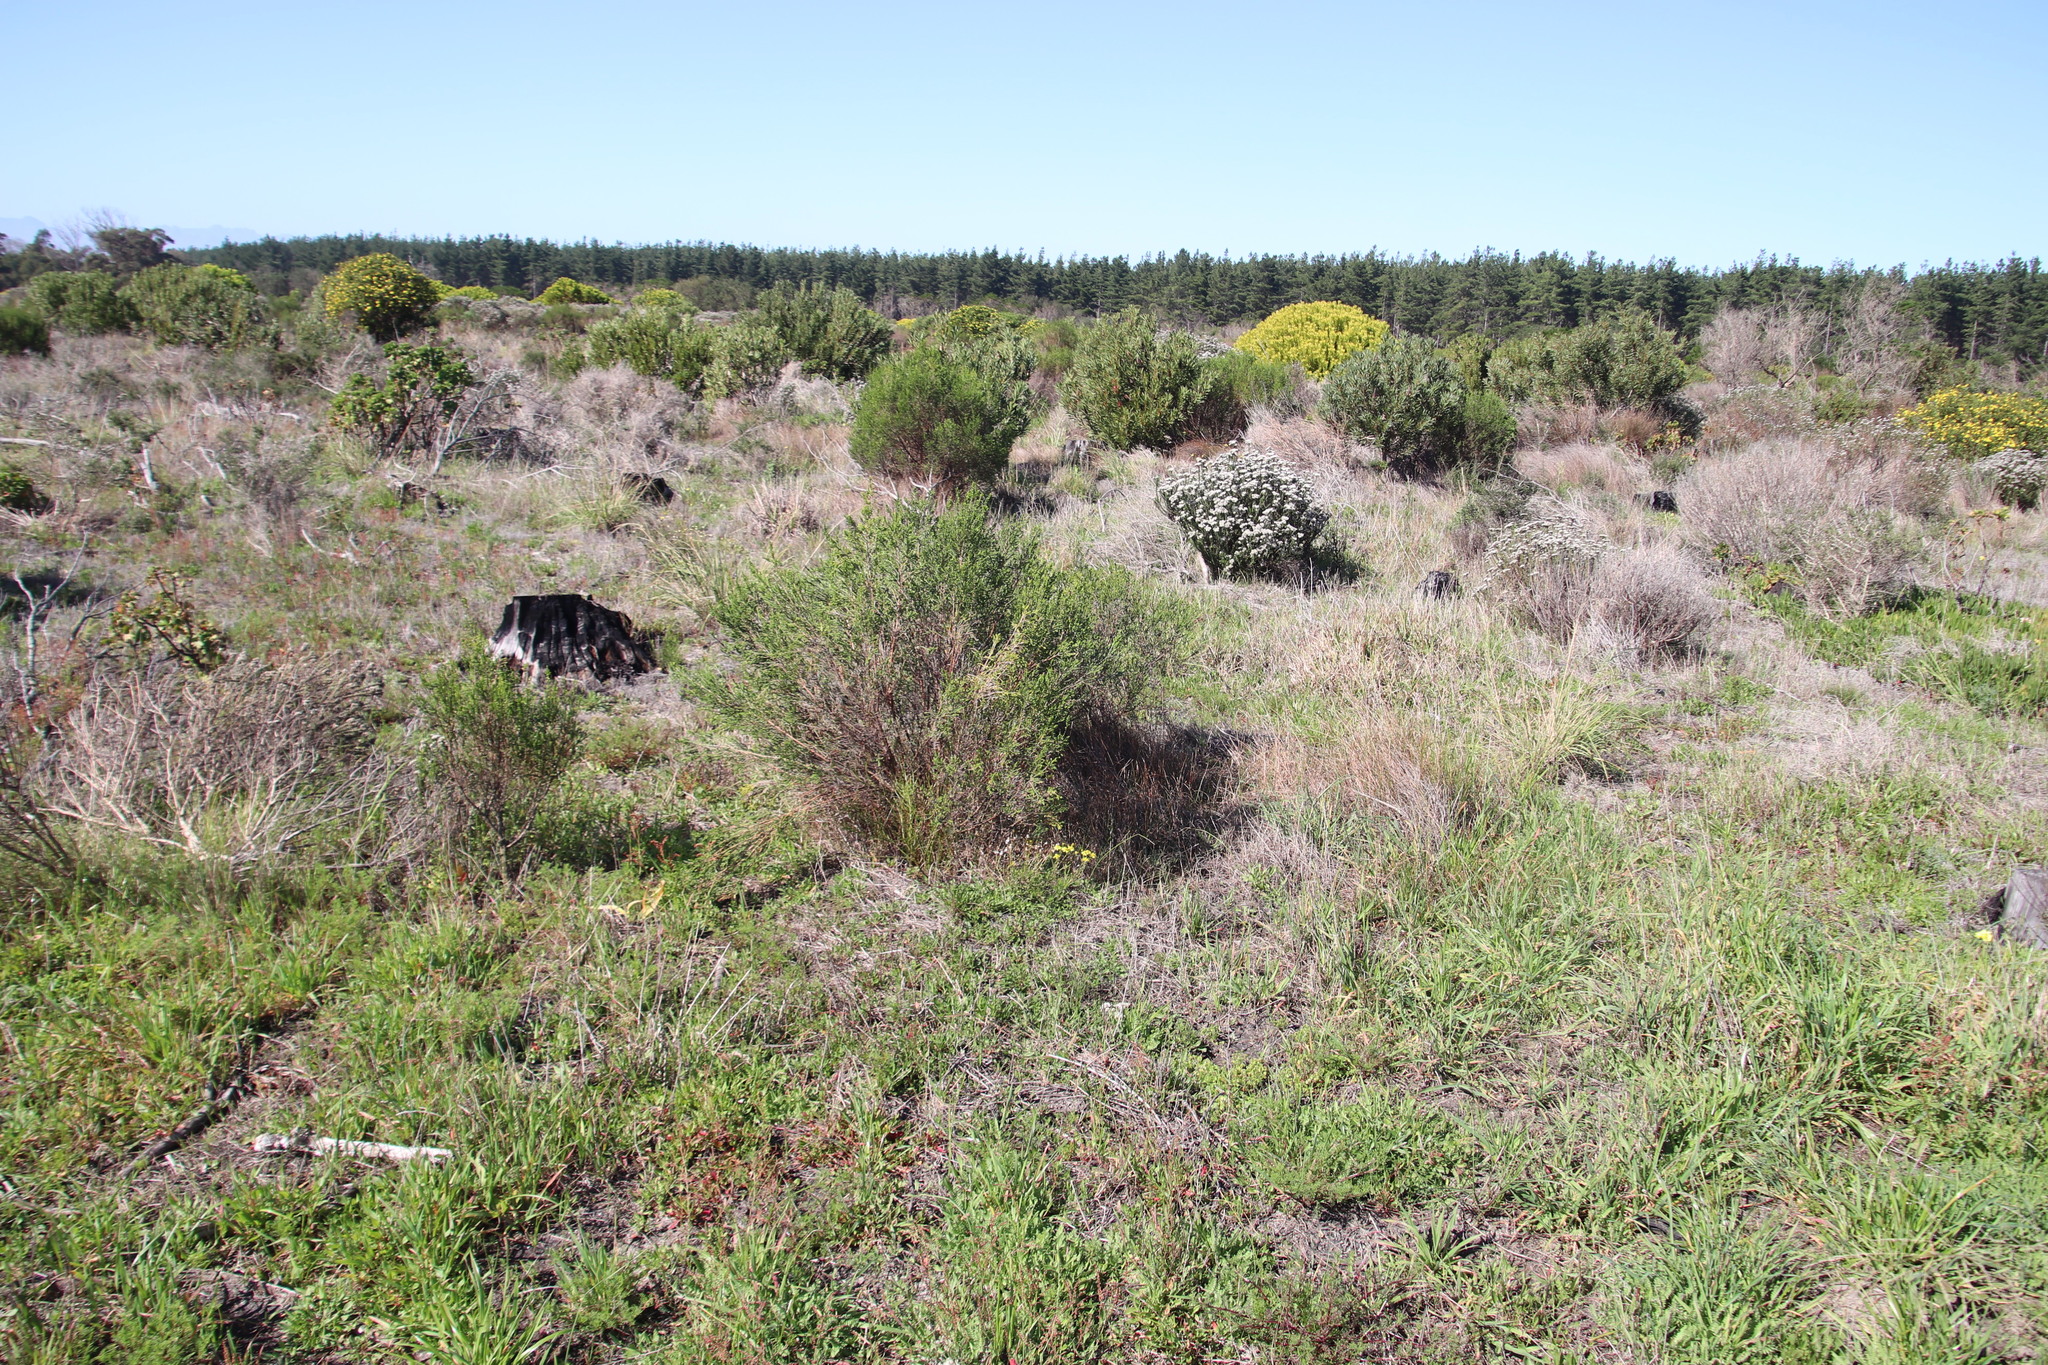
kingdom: Plantae
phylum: Tracheophyta
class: Magnoliopsida
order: Malvales
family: Thymelaeaceae
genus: Passerina
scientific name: Passerina corymbosa
